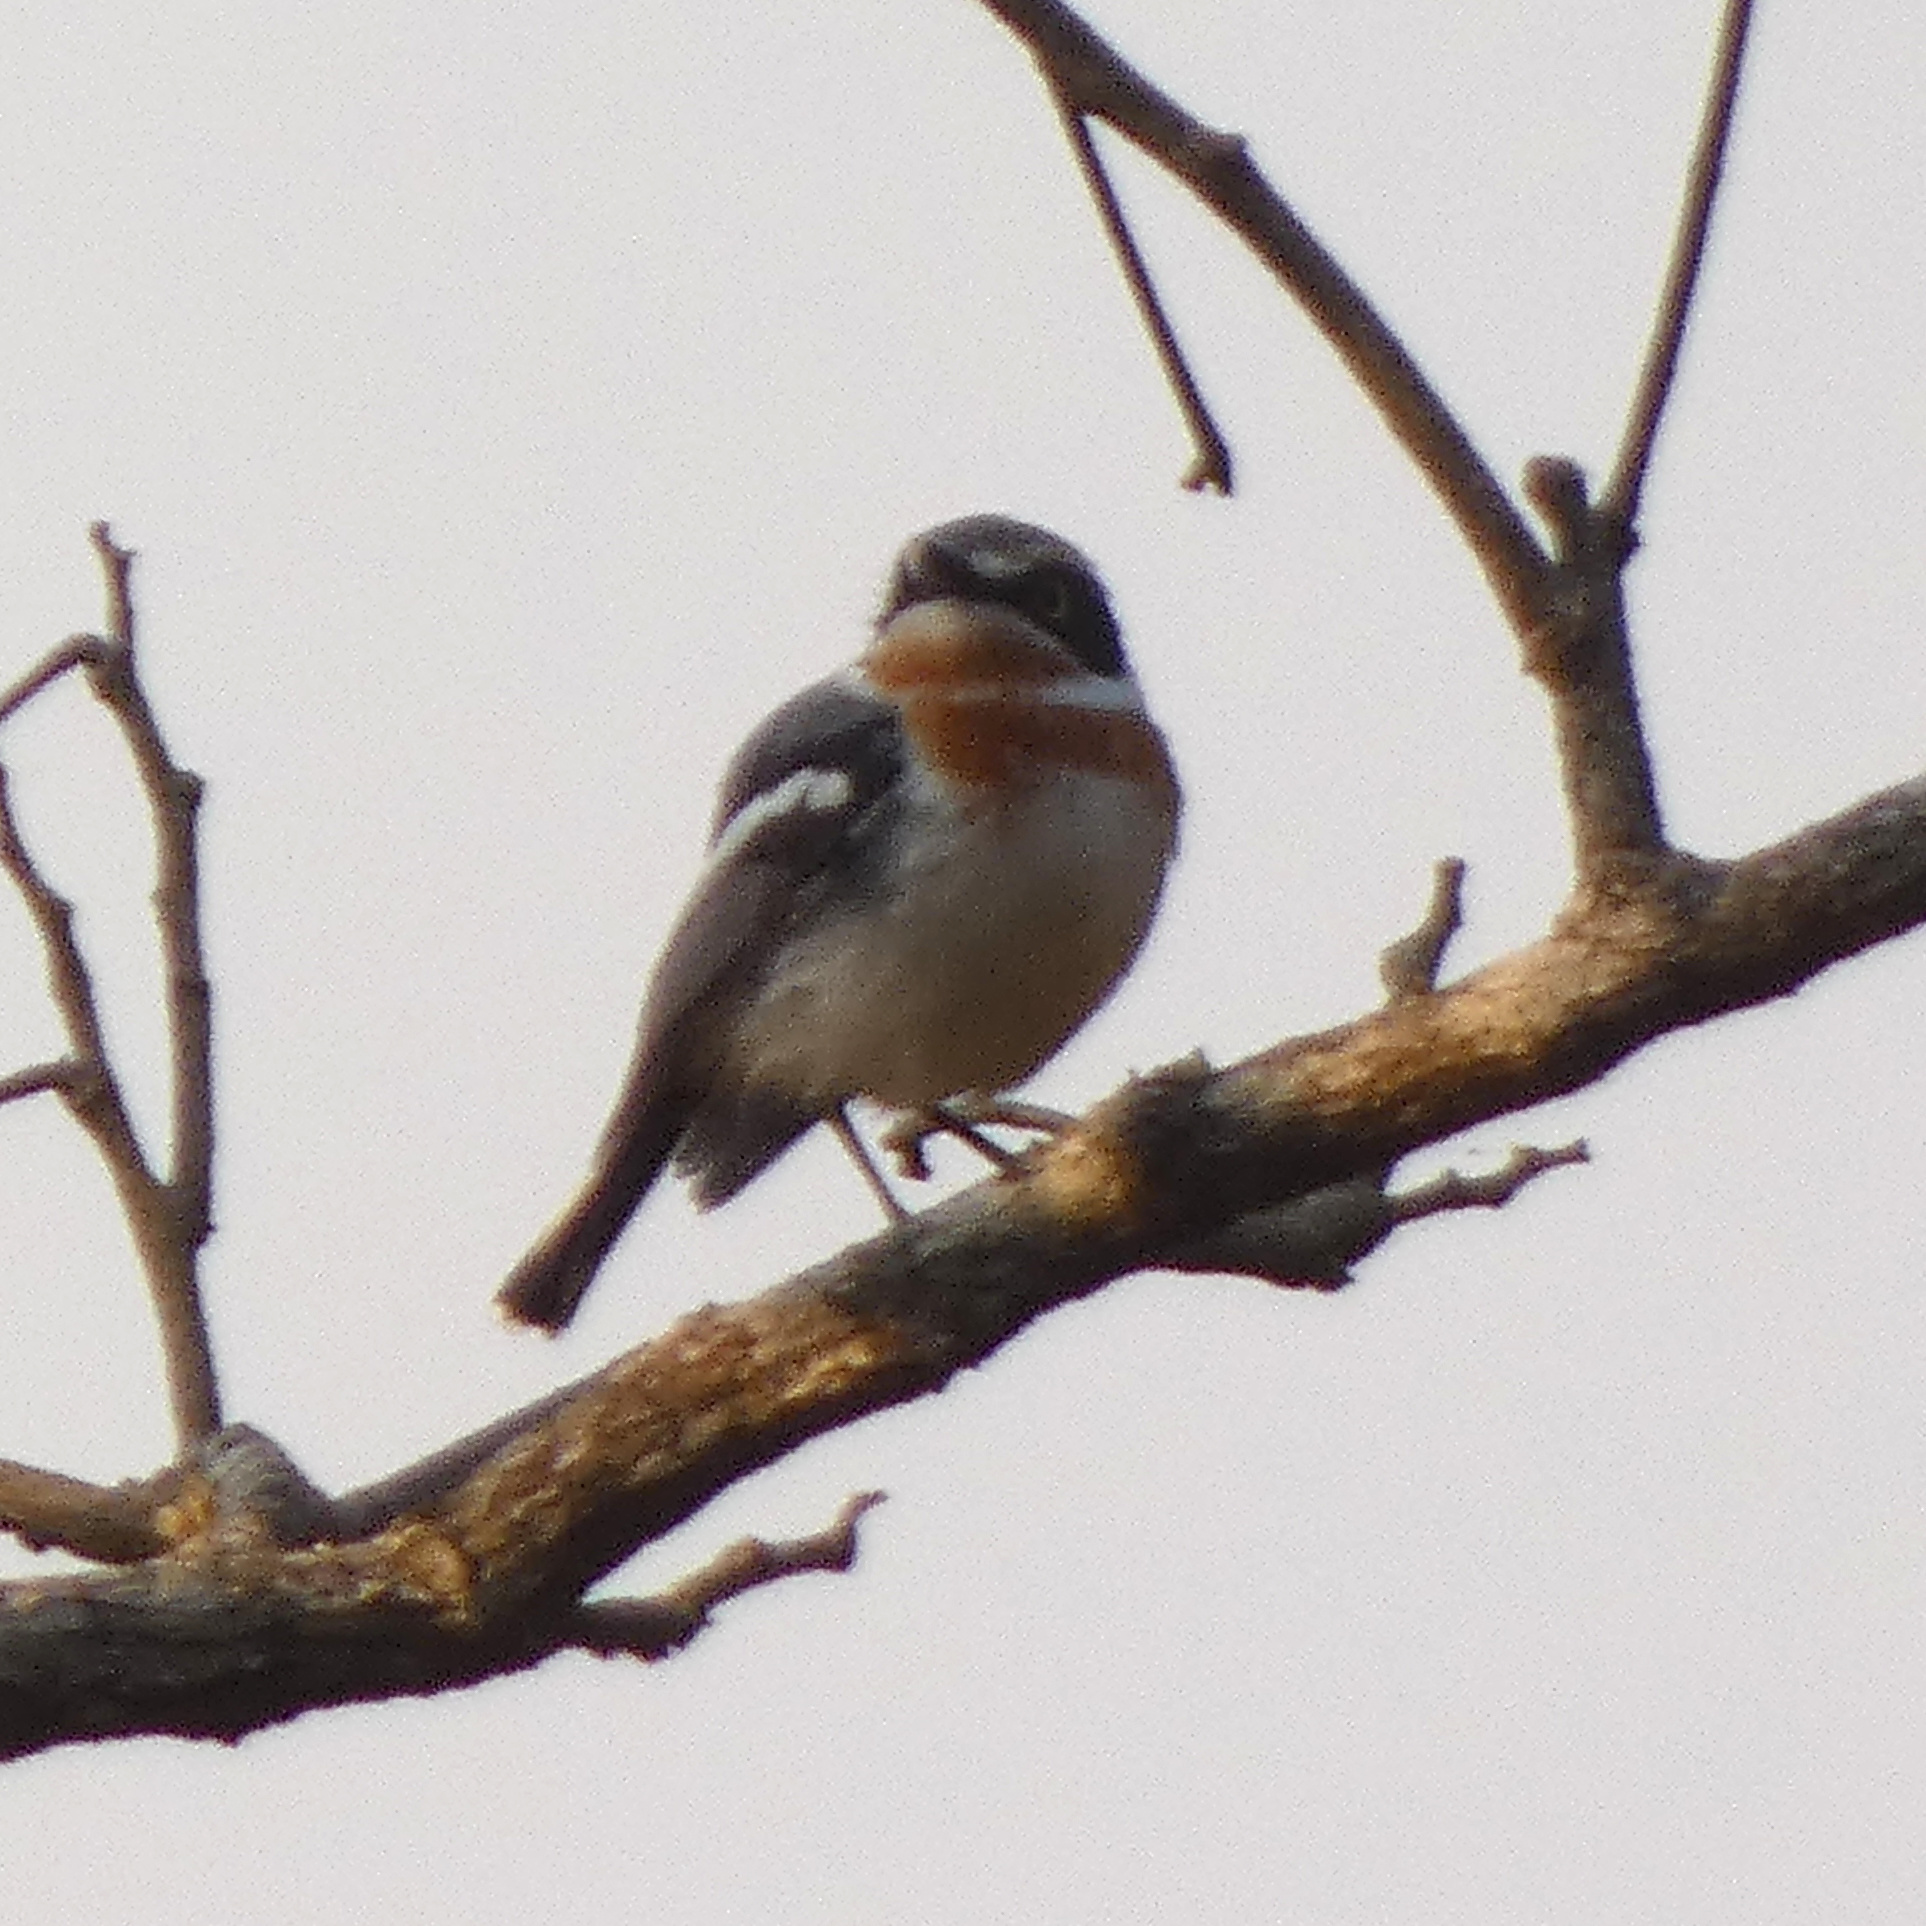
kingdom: Animalia
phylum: Chordata
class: Aves
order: Passeriformes
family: Platysteiridae
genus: Batis
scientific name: Batis soror
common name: Pale batis
